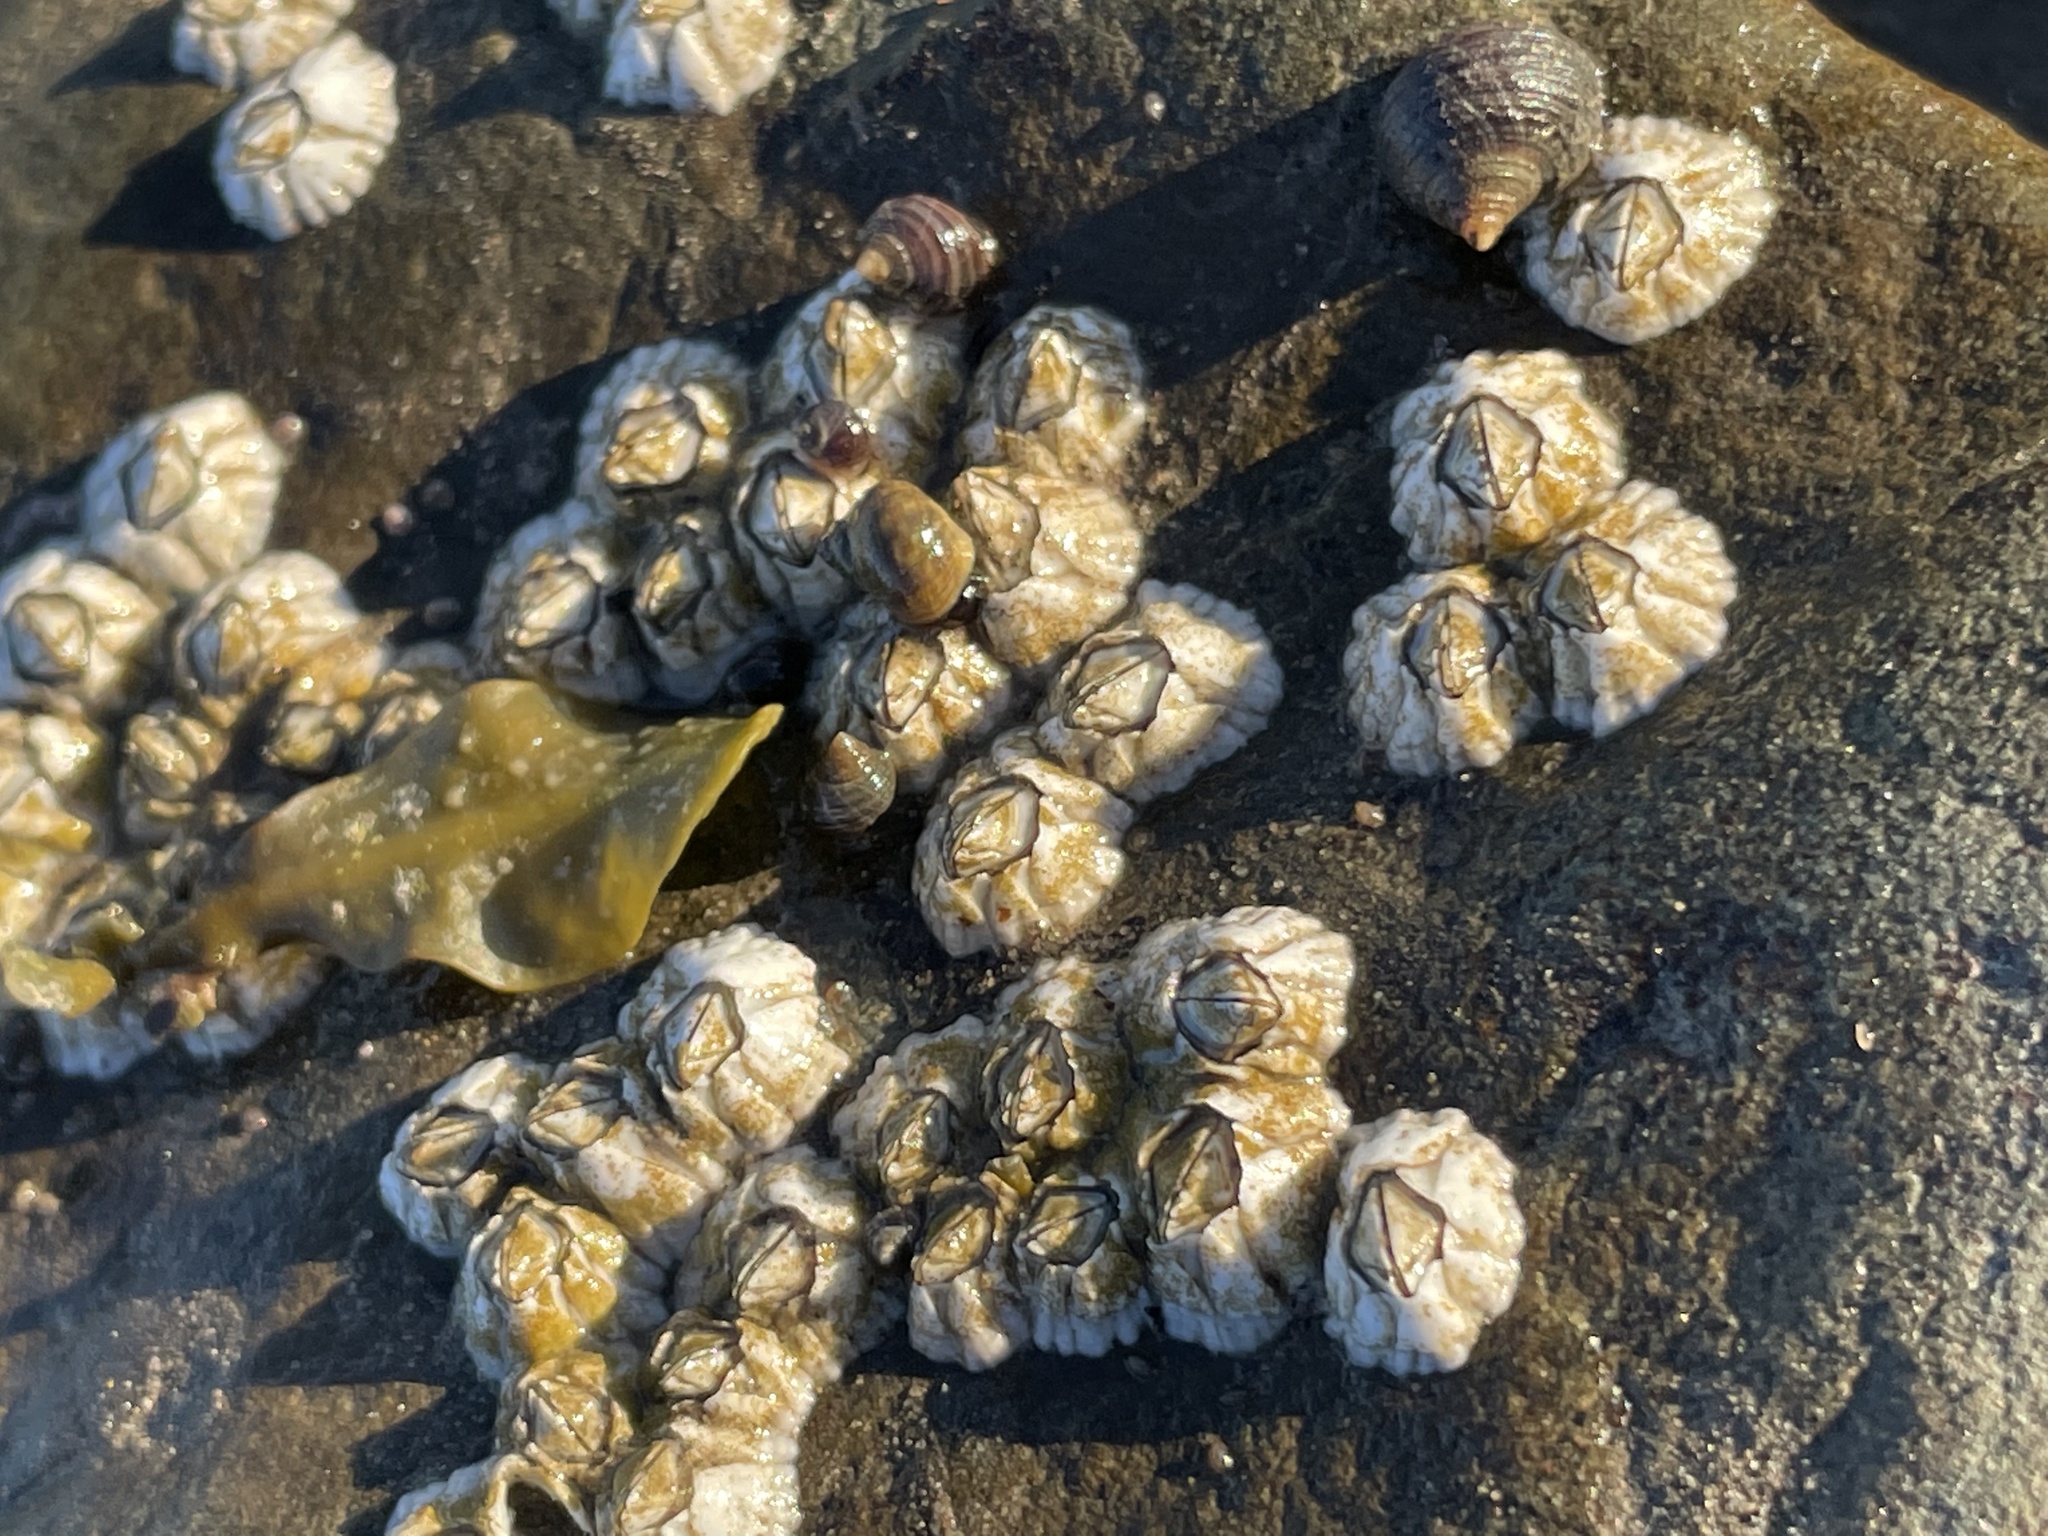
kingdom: Animalia
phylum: Arthropoda
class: Maxillopoda
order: Sessilia
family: Archaeobalanidae
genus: Semibalanus
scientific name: Semibalanus balanoides
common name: Acorn barnacle
